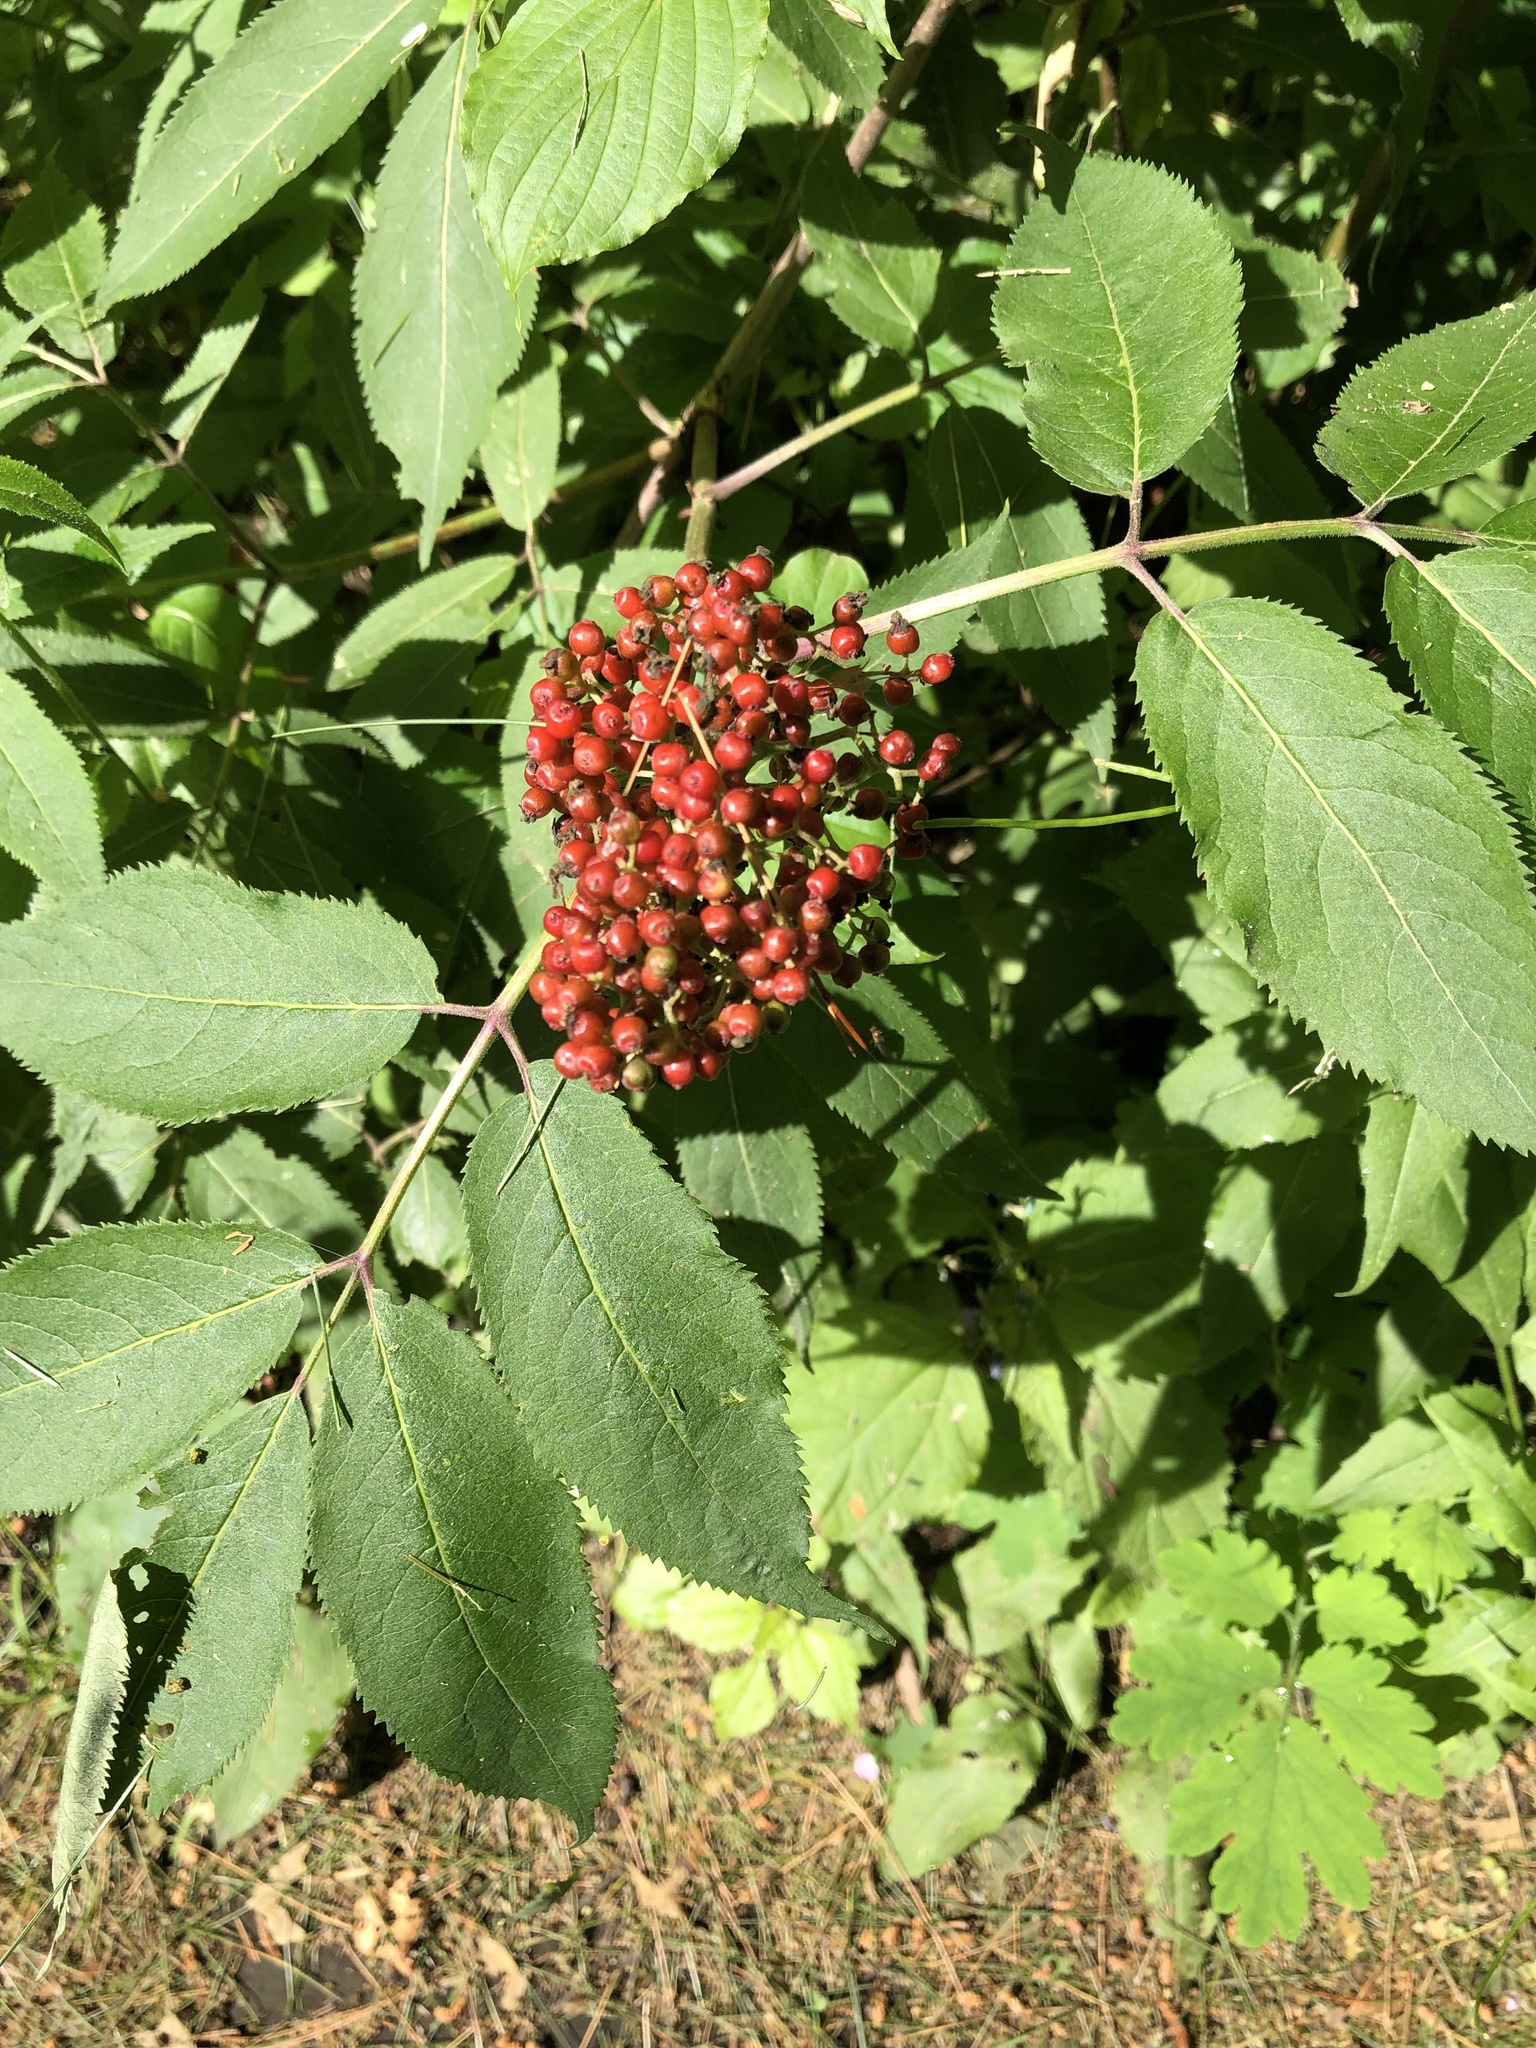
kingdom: Plantae
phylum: Tracheophyta
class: Magnoliopsida
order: Dipsacales
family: Viburnaceae
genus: Sambucus
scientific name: Sambucus racemosa
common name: Red-berried elder
